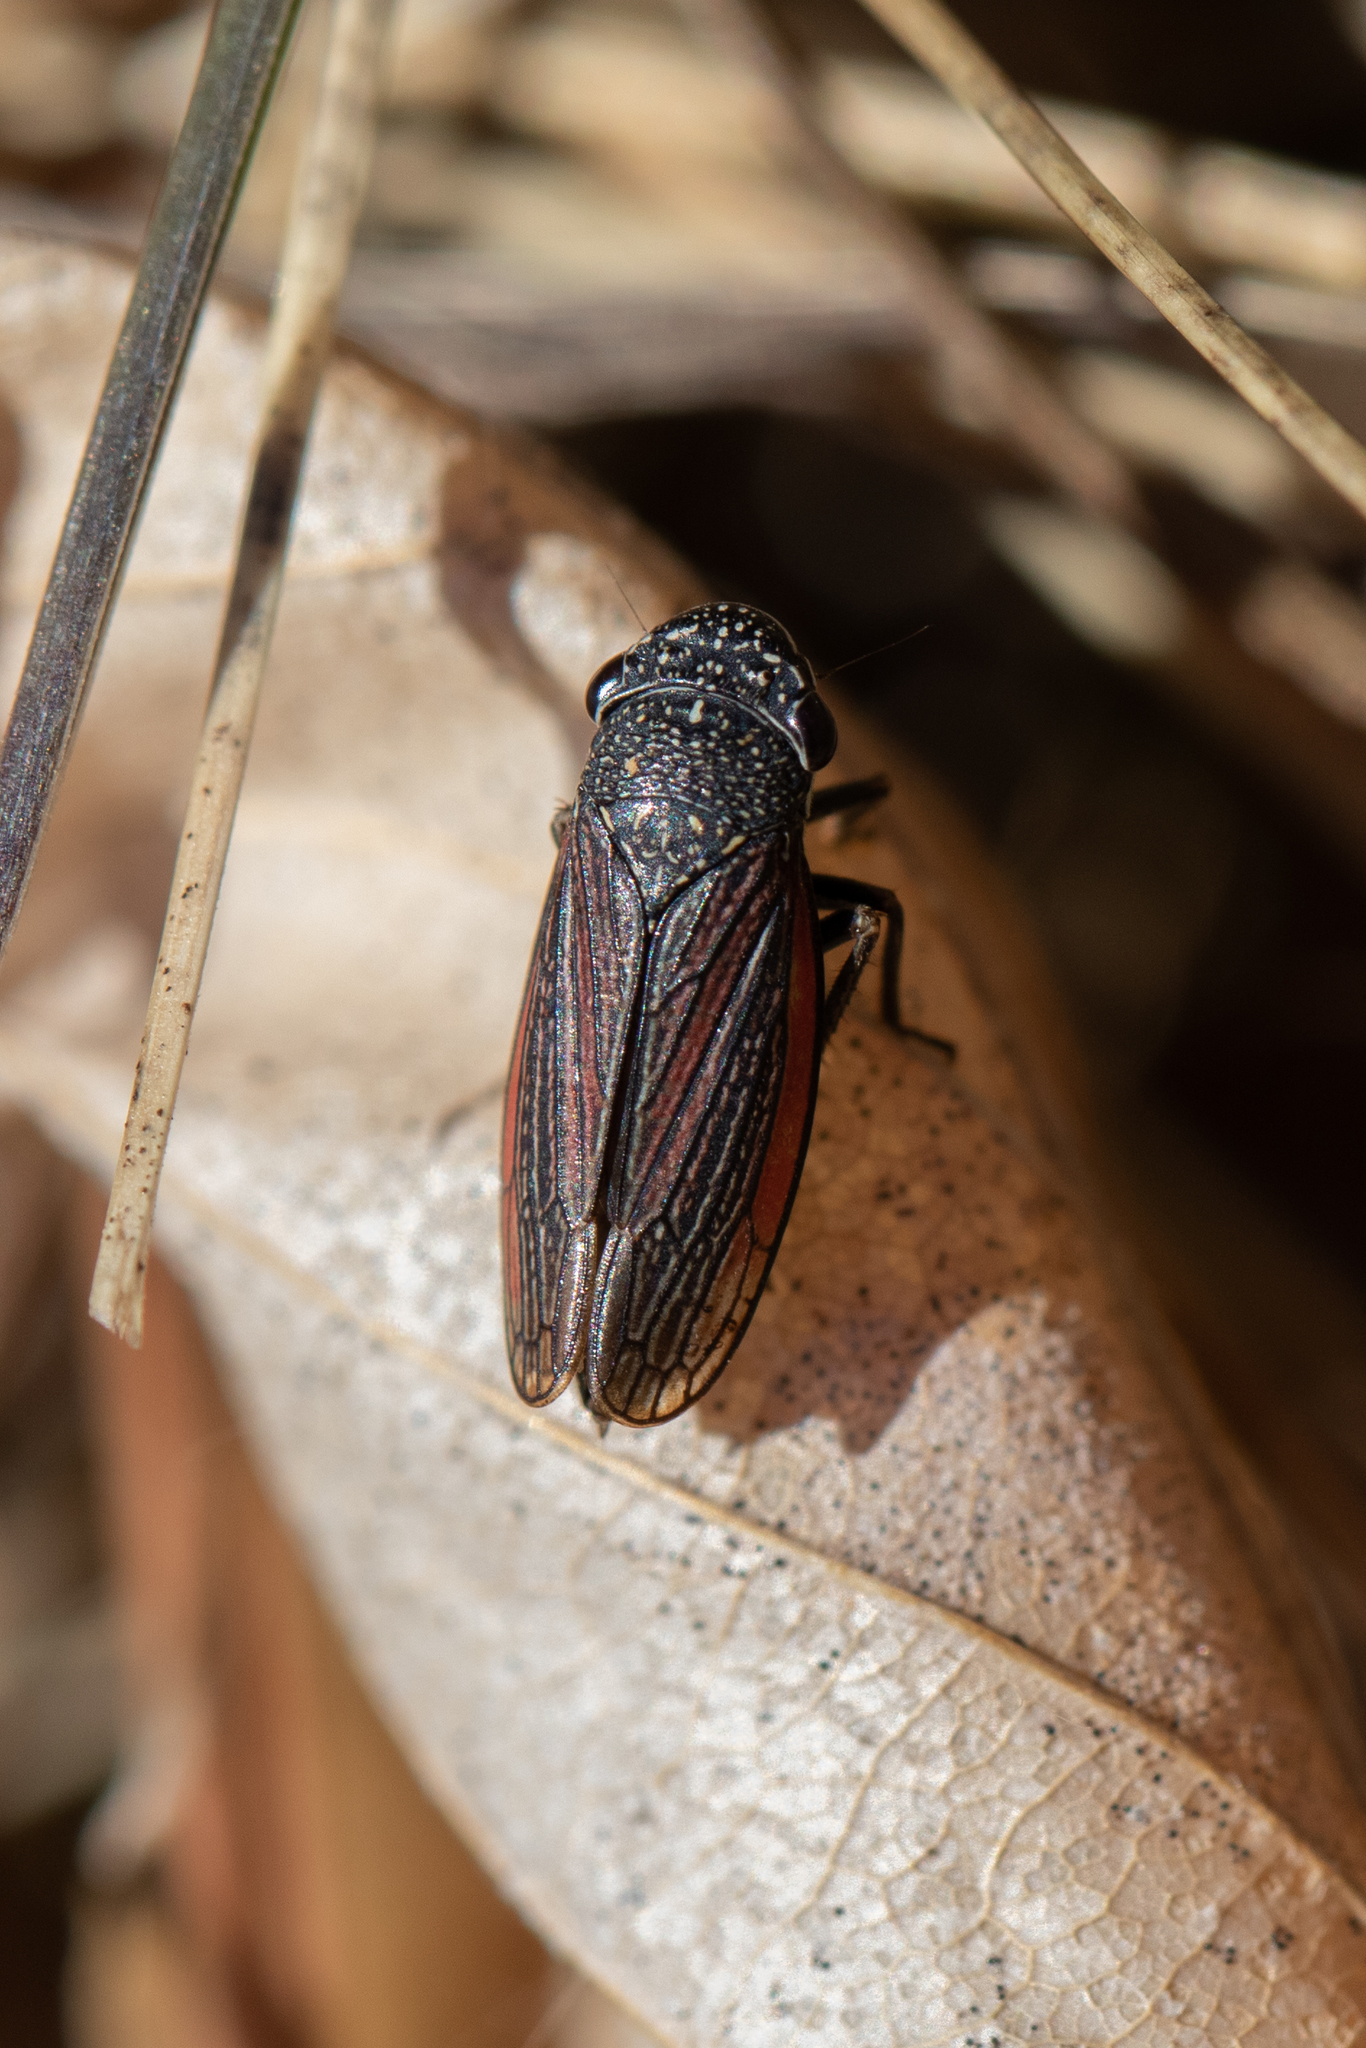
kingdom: Animalia
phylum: Arthropoda
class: Insecta
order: Hemiptera
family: Cicadellidae
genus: Cuerna
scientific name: Cuerna striata
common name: Striped leafhopper
